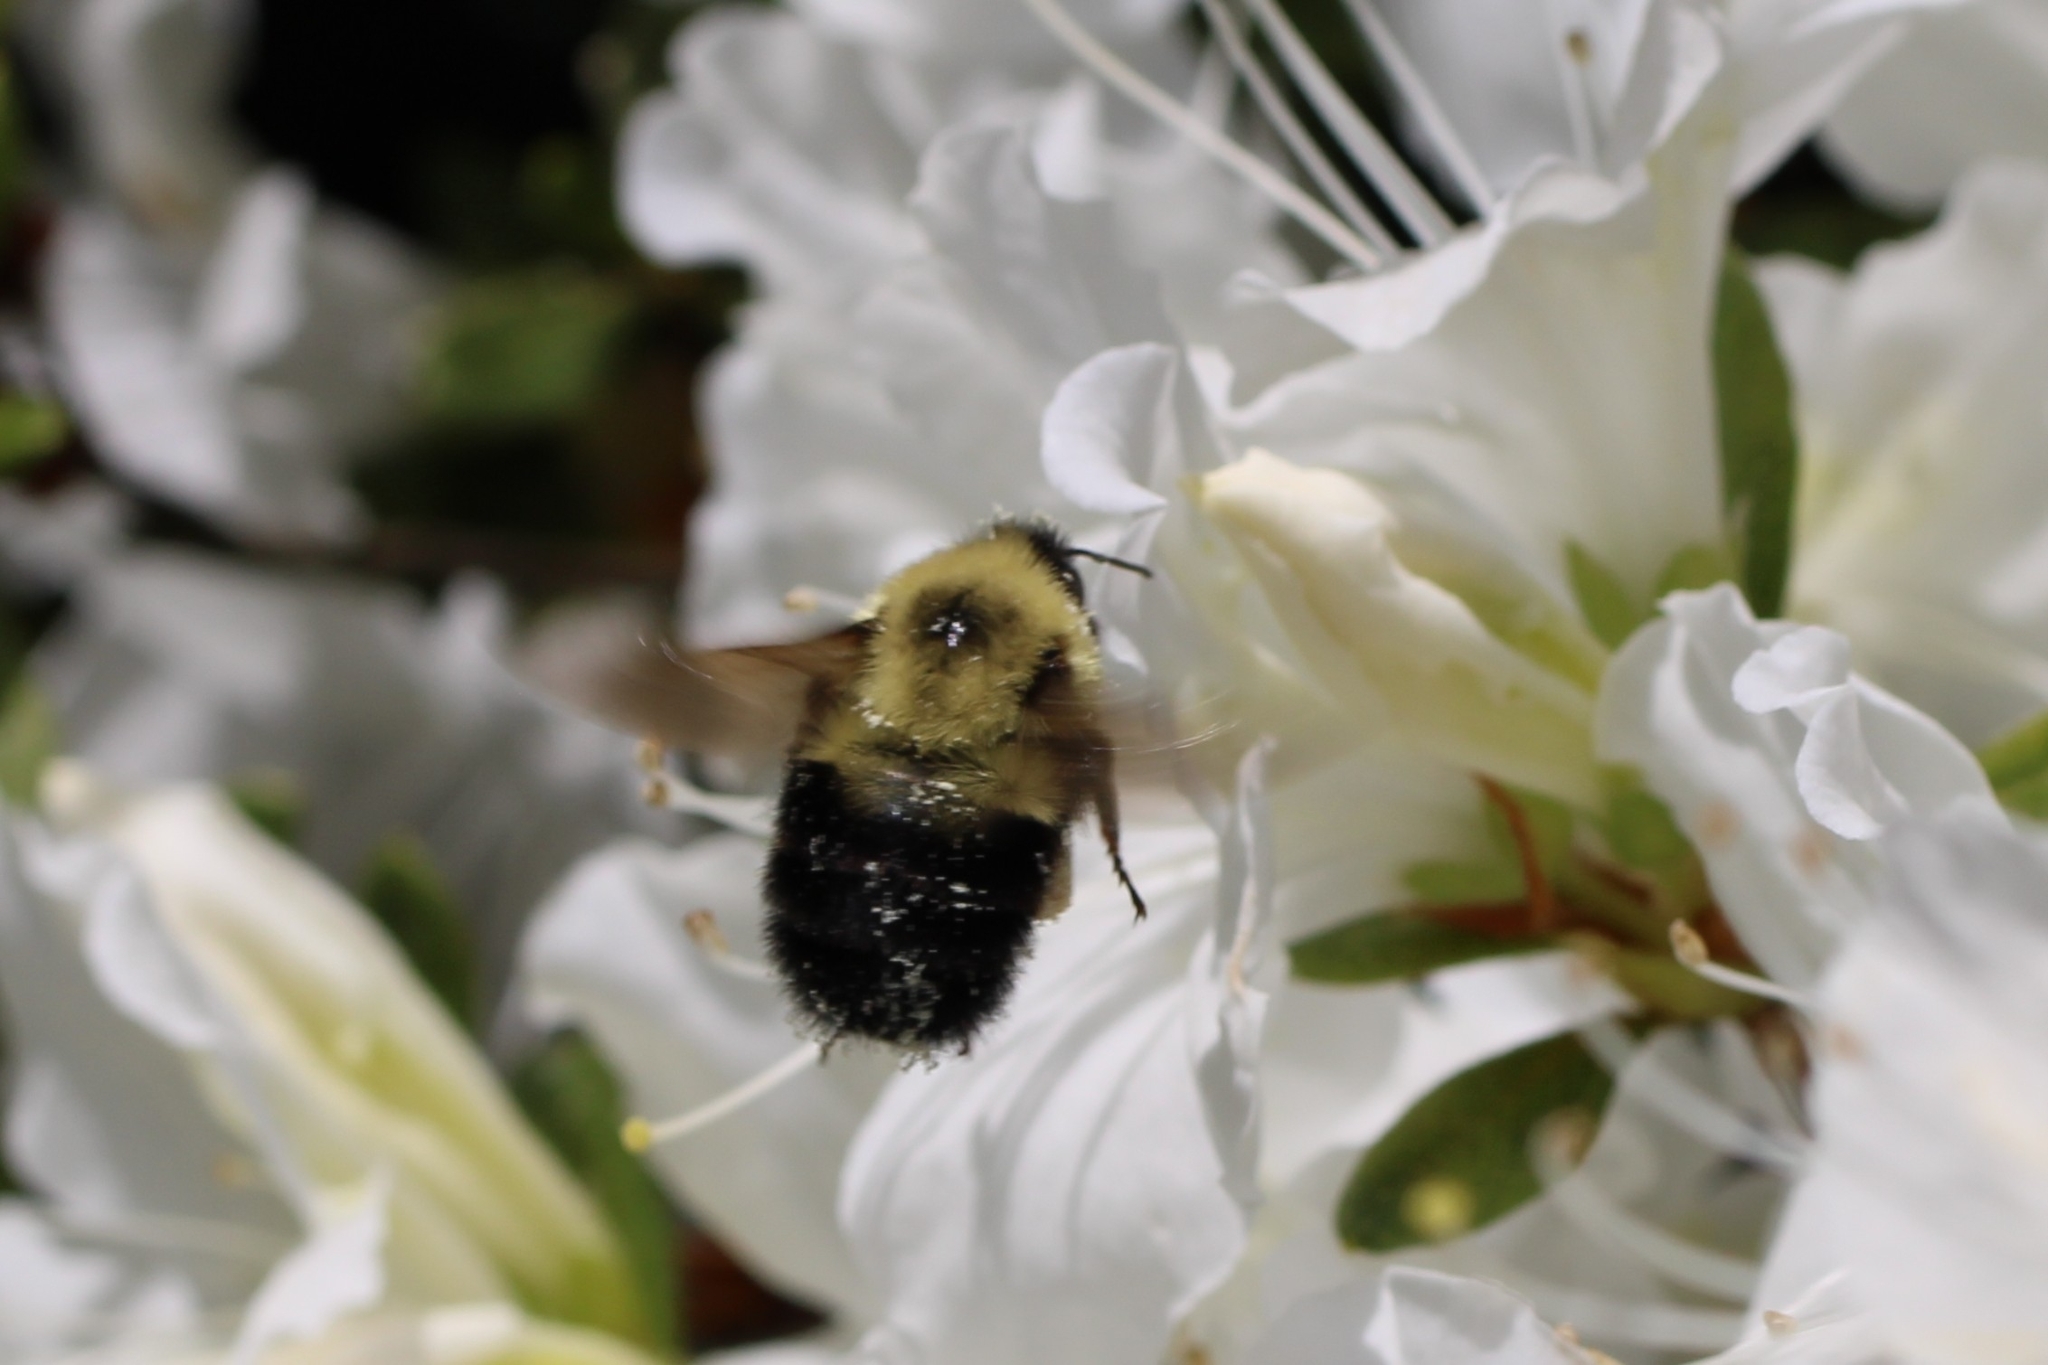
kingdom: Animalia
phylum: Arthropoda
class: Insecta
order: Hymenoptera
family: Apidae
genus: Bombus
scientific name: Bombus bimaculatus
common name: Two-spotted bumble bee
